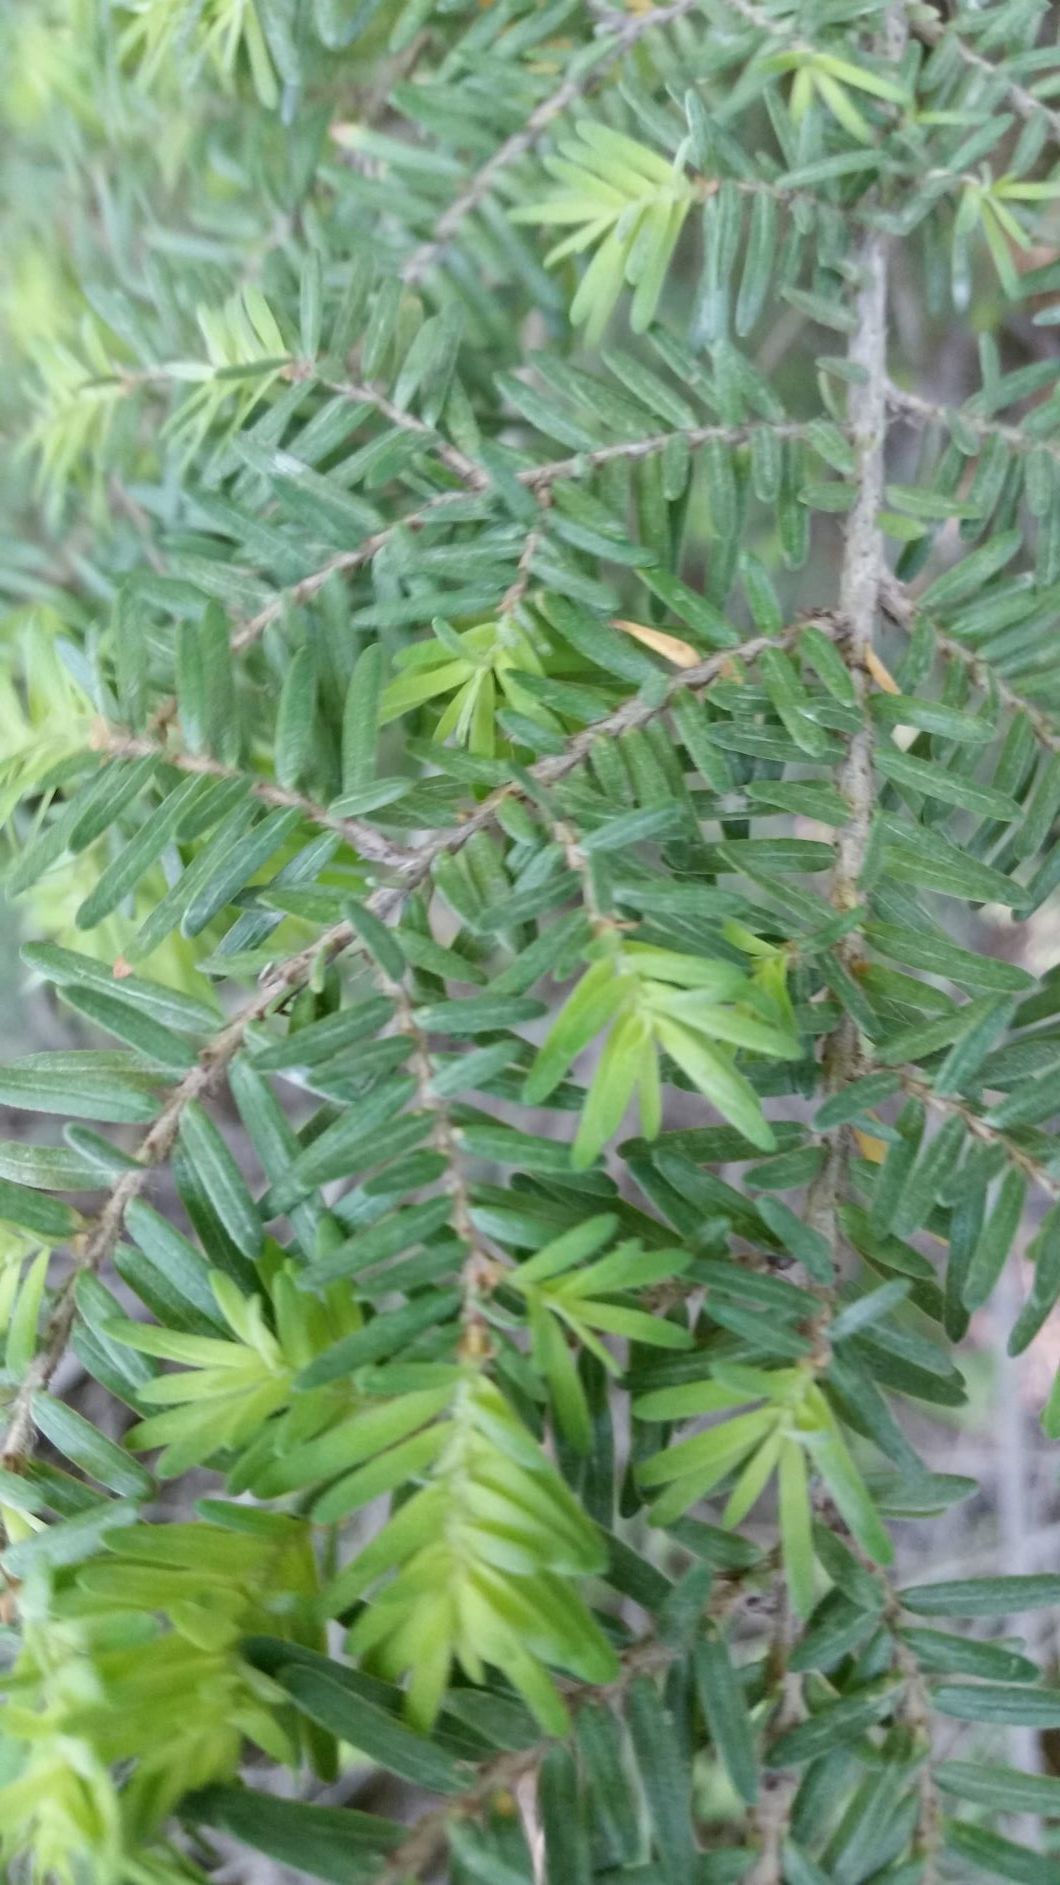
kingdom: Plantae
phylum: Tracheophyta
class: Pinopsida
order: Pinales
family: Pinaceae
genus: Tsuga
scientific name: Tsuga heterophylla
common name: Western hemlock
